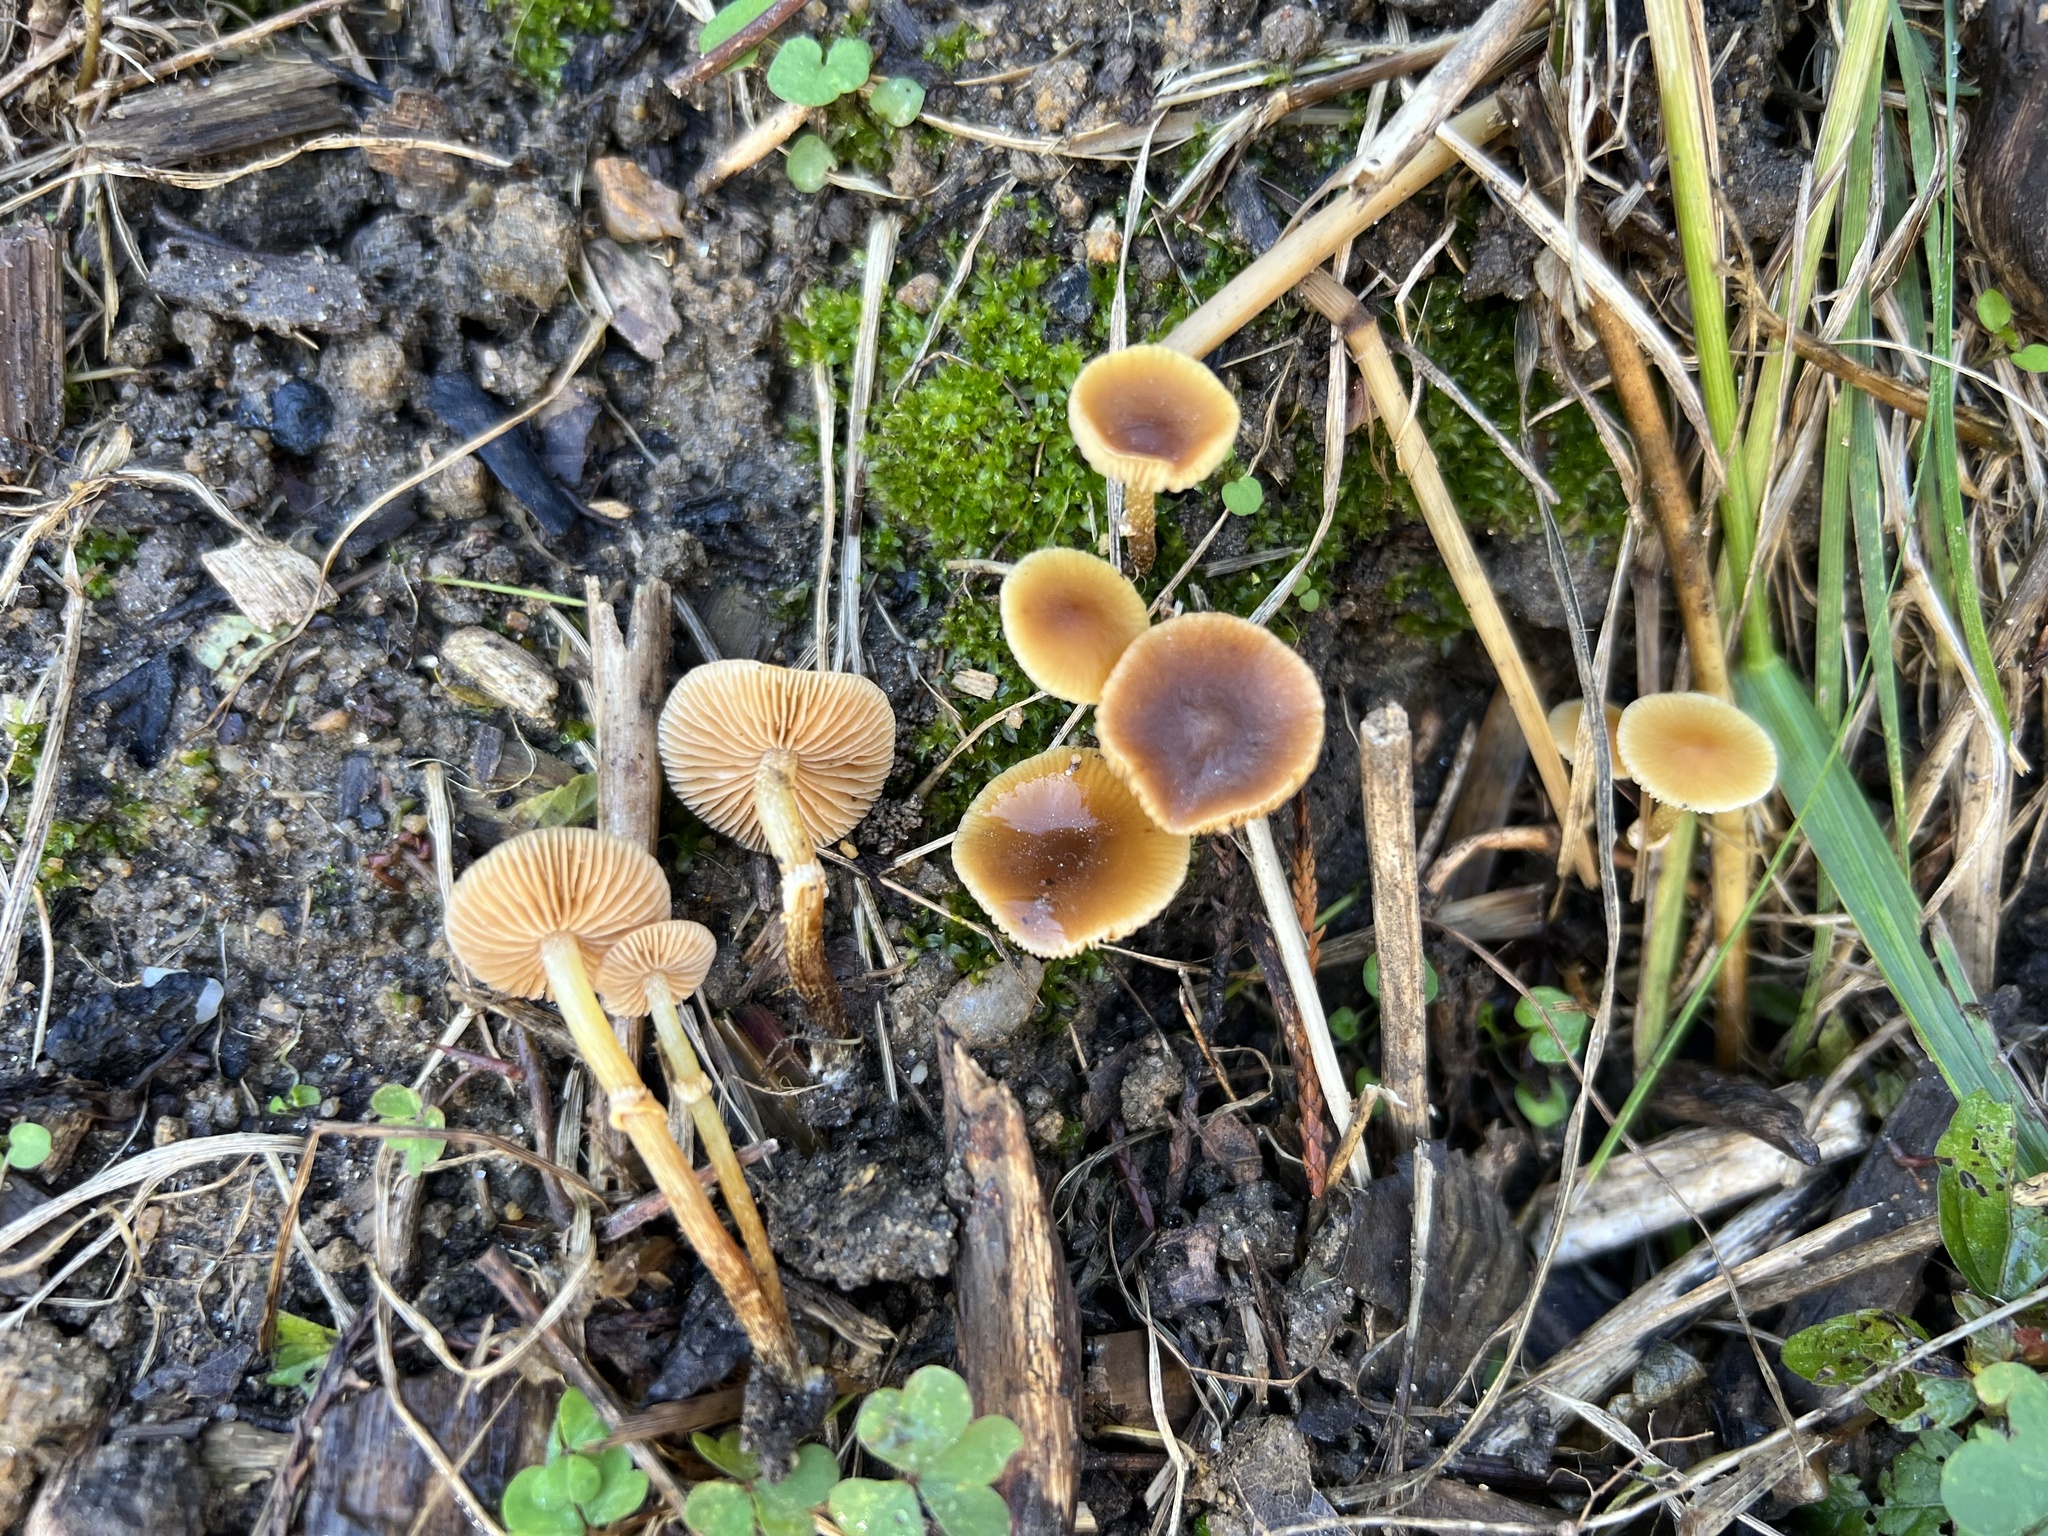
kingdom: Fungi
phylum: Basidiomycota
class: Agaricomycetes
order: Agaricales
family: Bolbitiaceae
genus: Conocybe
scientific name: Conocybe rugosa
